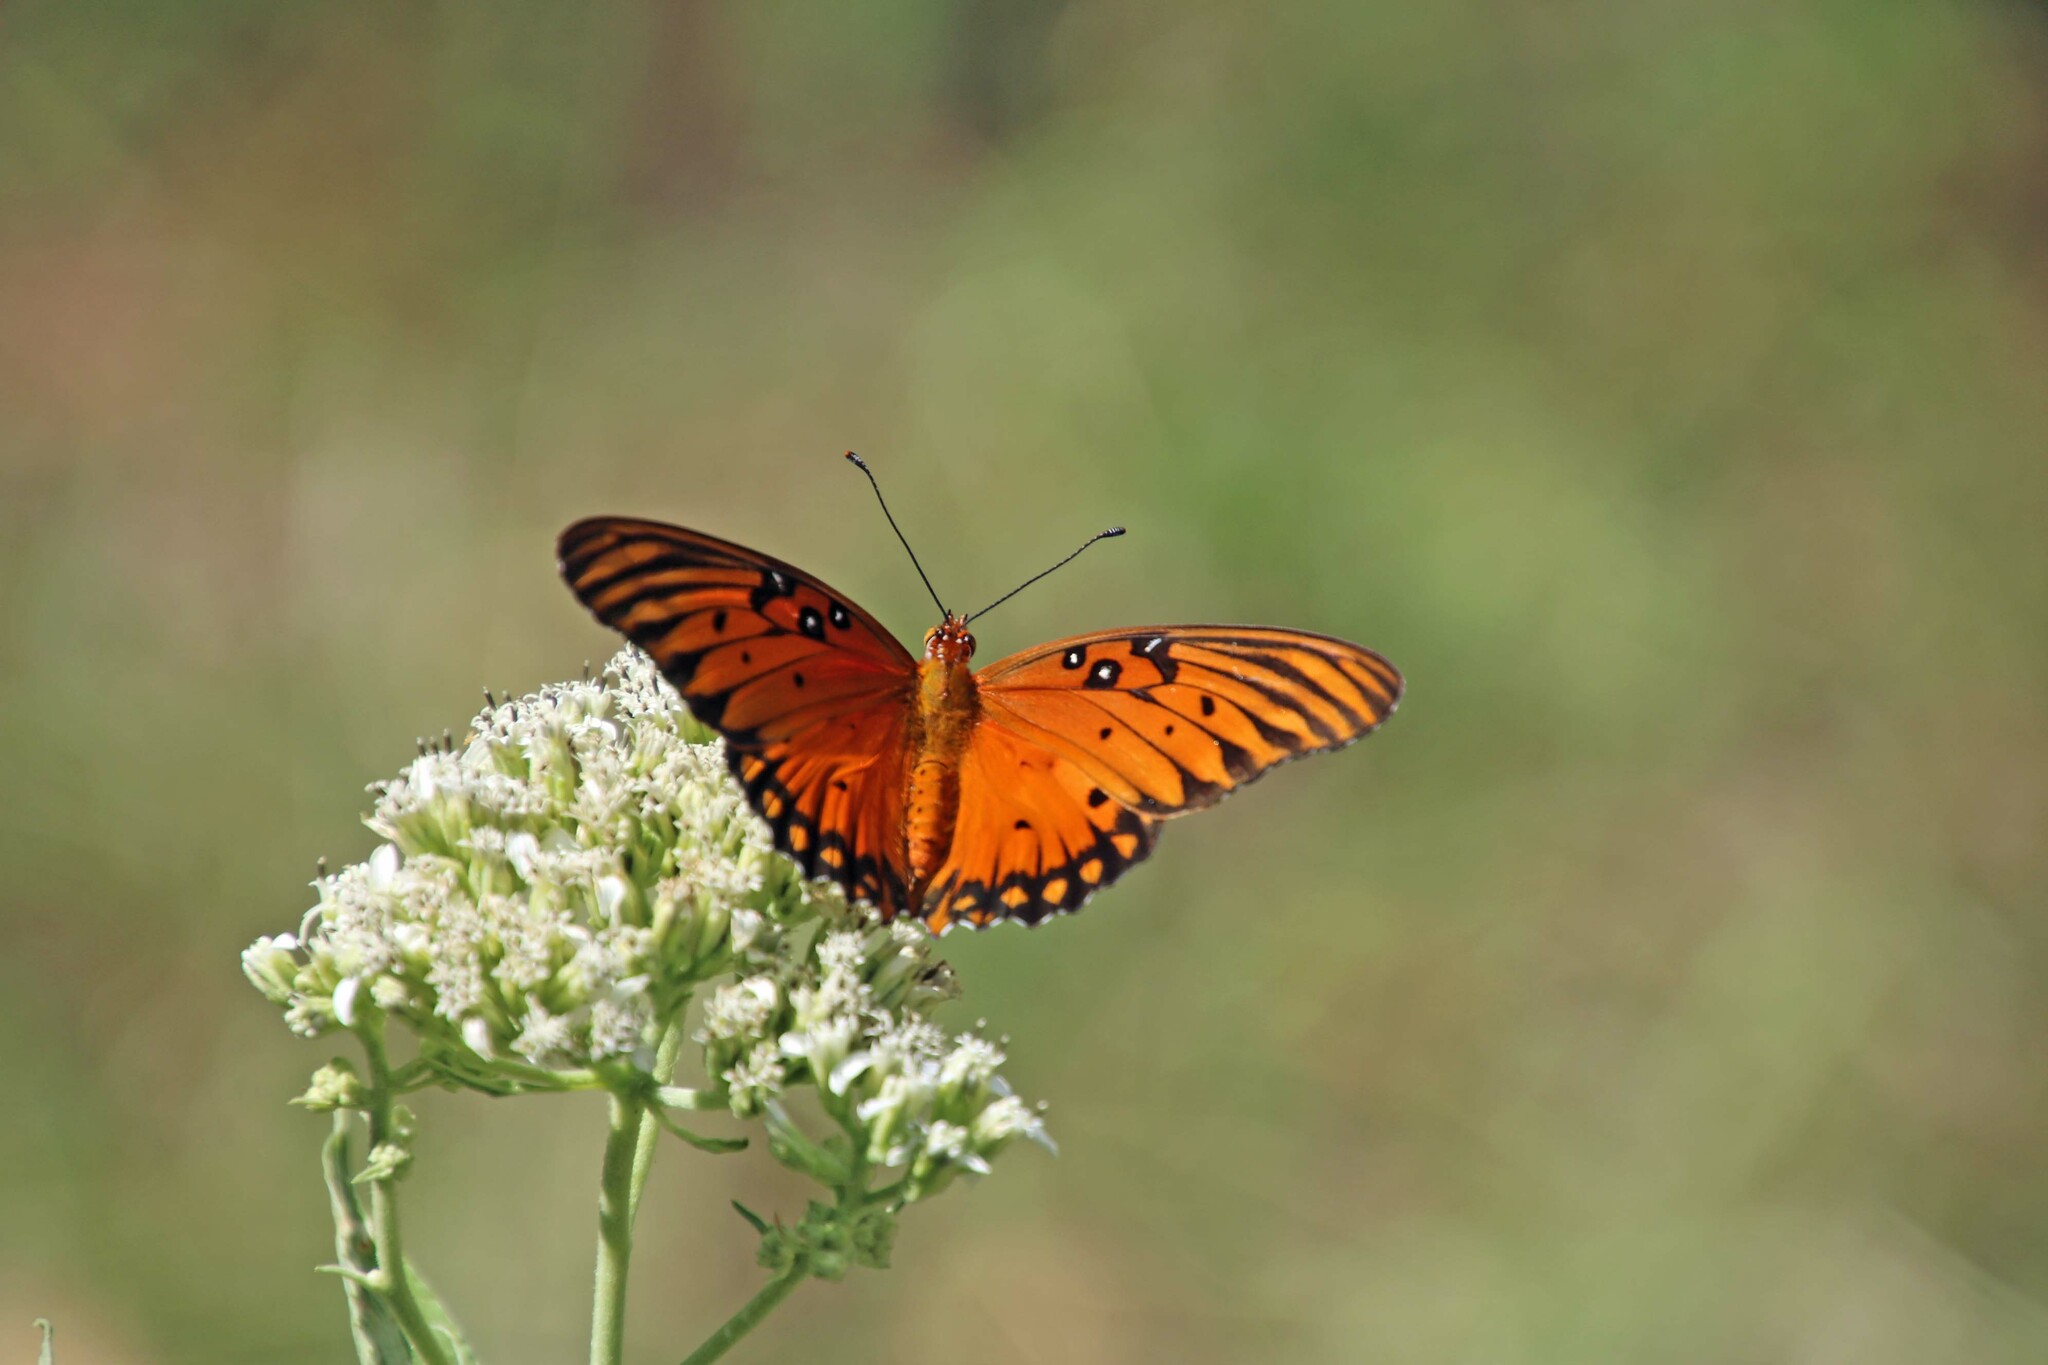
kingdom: Animalia
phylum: Arthropoda
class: Insecta
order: Lepidoptera
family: Nymphalidae
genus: Dione
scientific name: Dione vanillae
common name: Gulf fritillary
